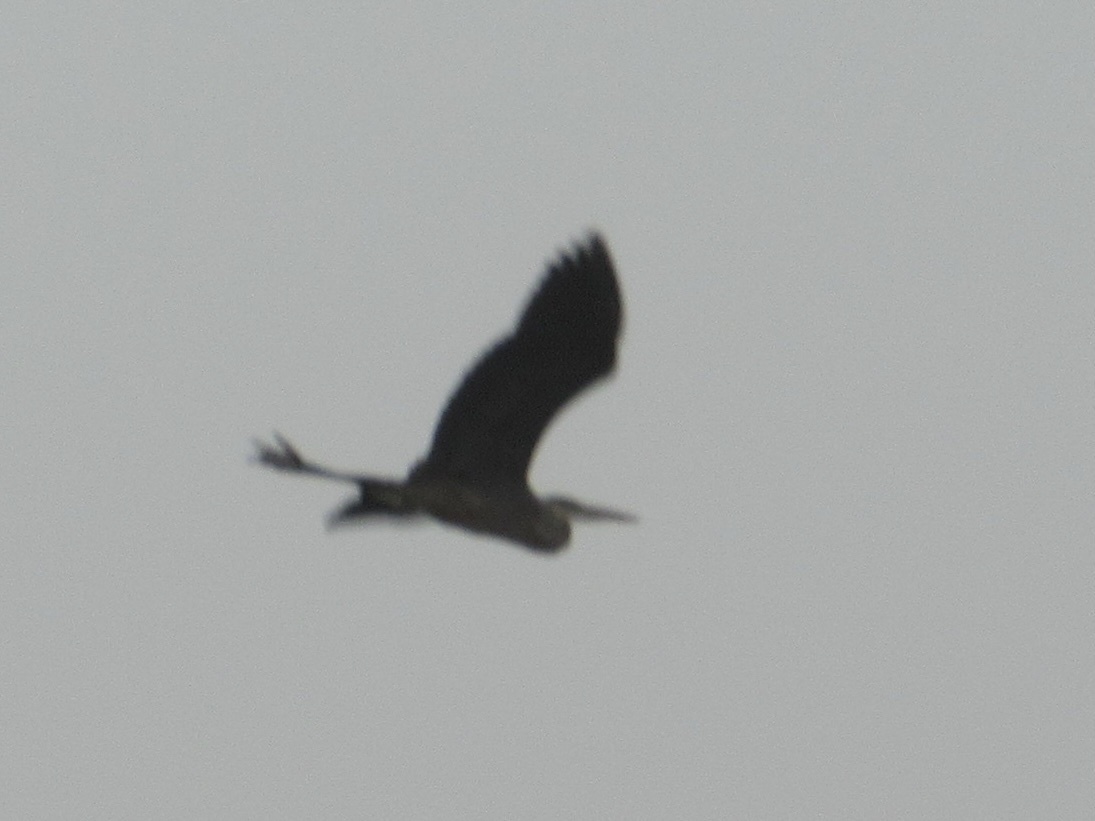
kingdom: Animalia
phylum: Chordata
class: Aves
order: Pelecaniformes
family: Ardeidae
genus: Ardea
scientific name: Ardea herodias
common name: Great blue heron
